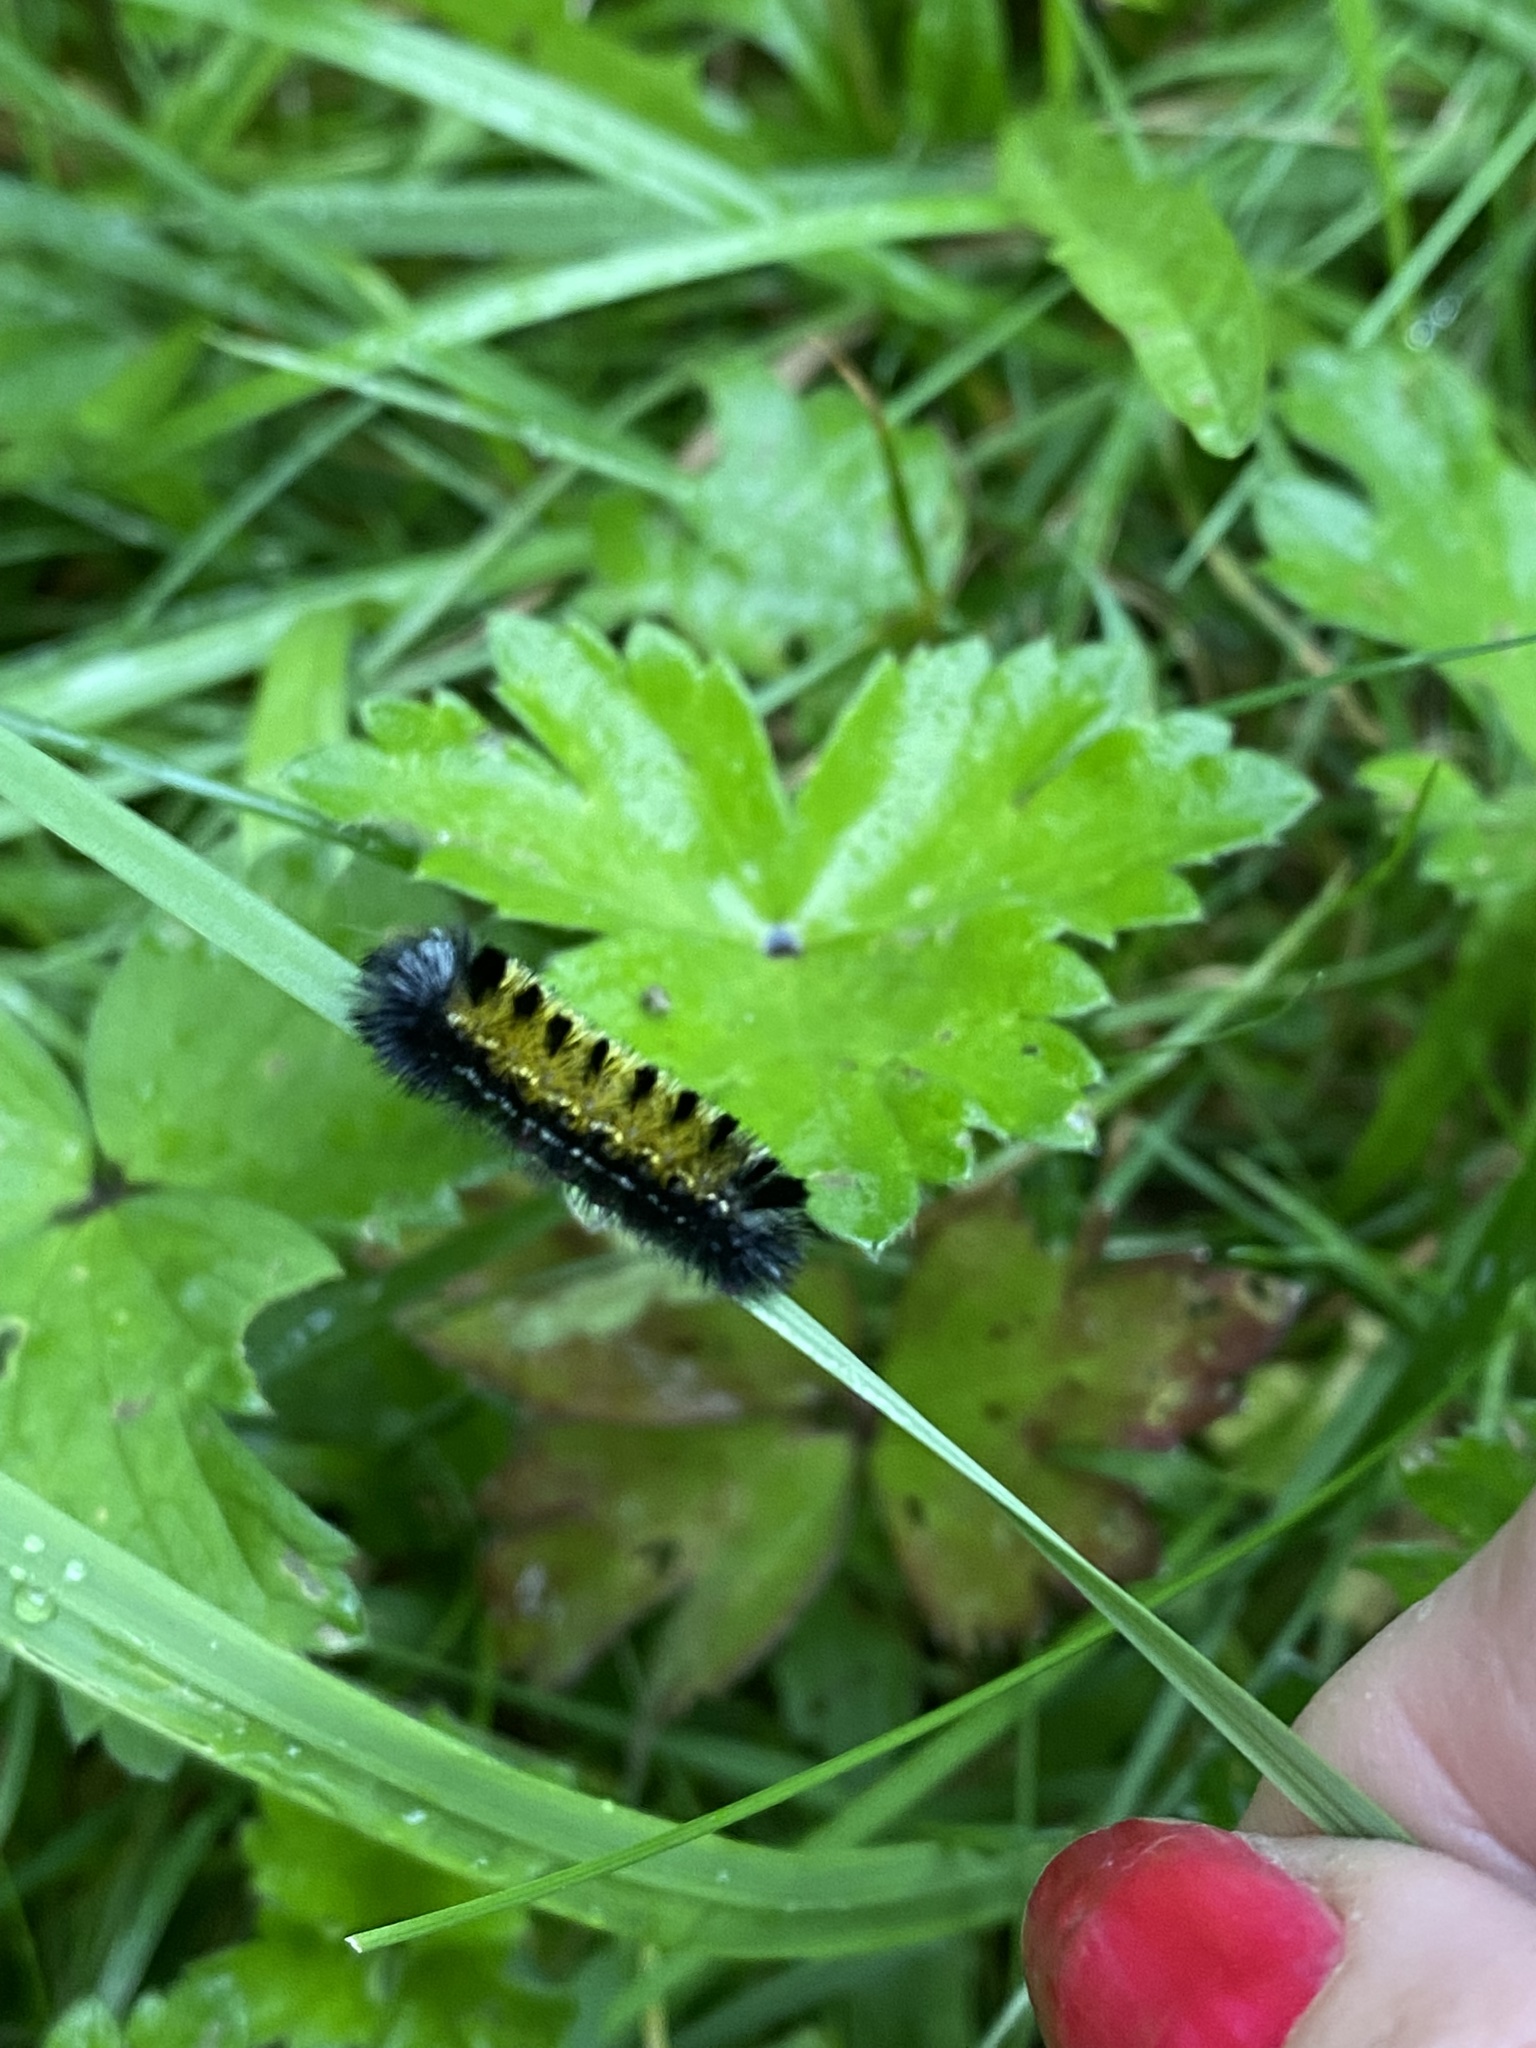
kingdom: Animalia
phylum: Arthropoda
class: Insecta
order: Lepidoptera
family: Erebidae
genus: Ctenucha
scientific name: Ctenucha virginica
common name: Virginia ctenucha moth
